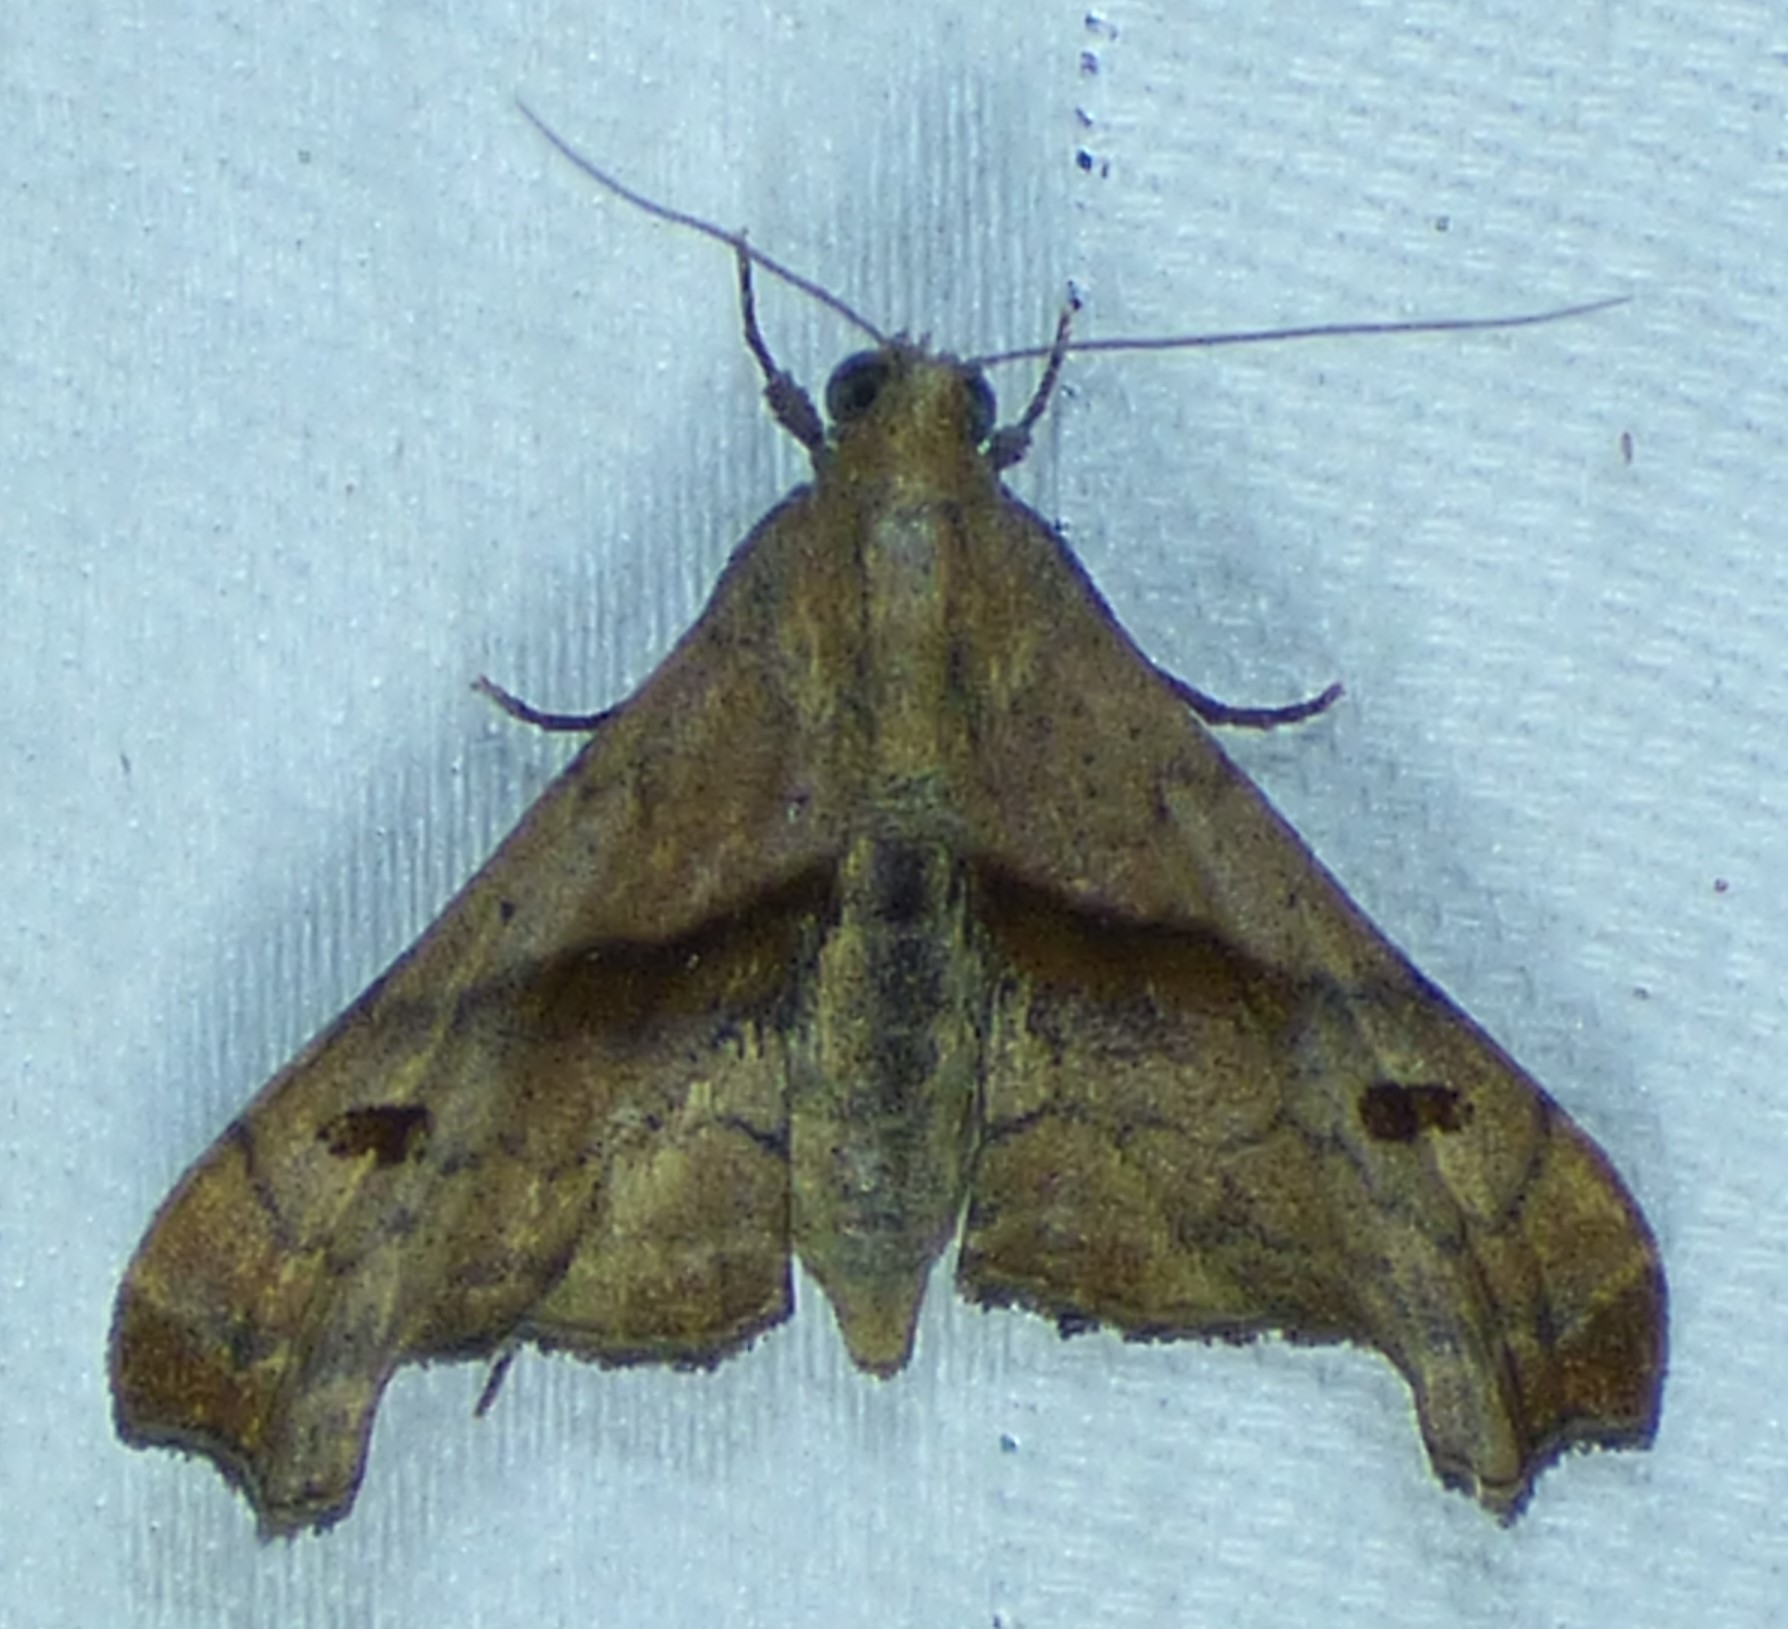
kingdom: Animalia
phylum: Arthropoda
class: Insecta
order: Lepidoptera
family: Erebidae
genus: Palthis
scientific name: Palthis angulalis
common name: Dark-spotted palthis moth
